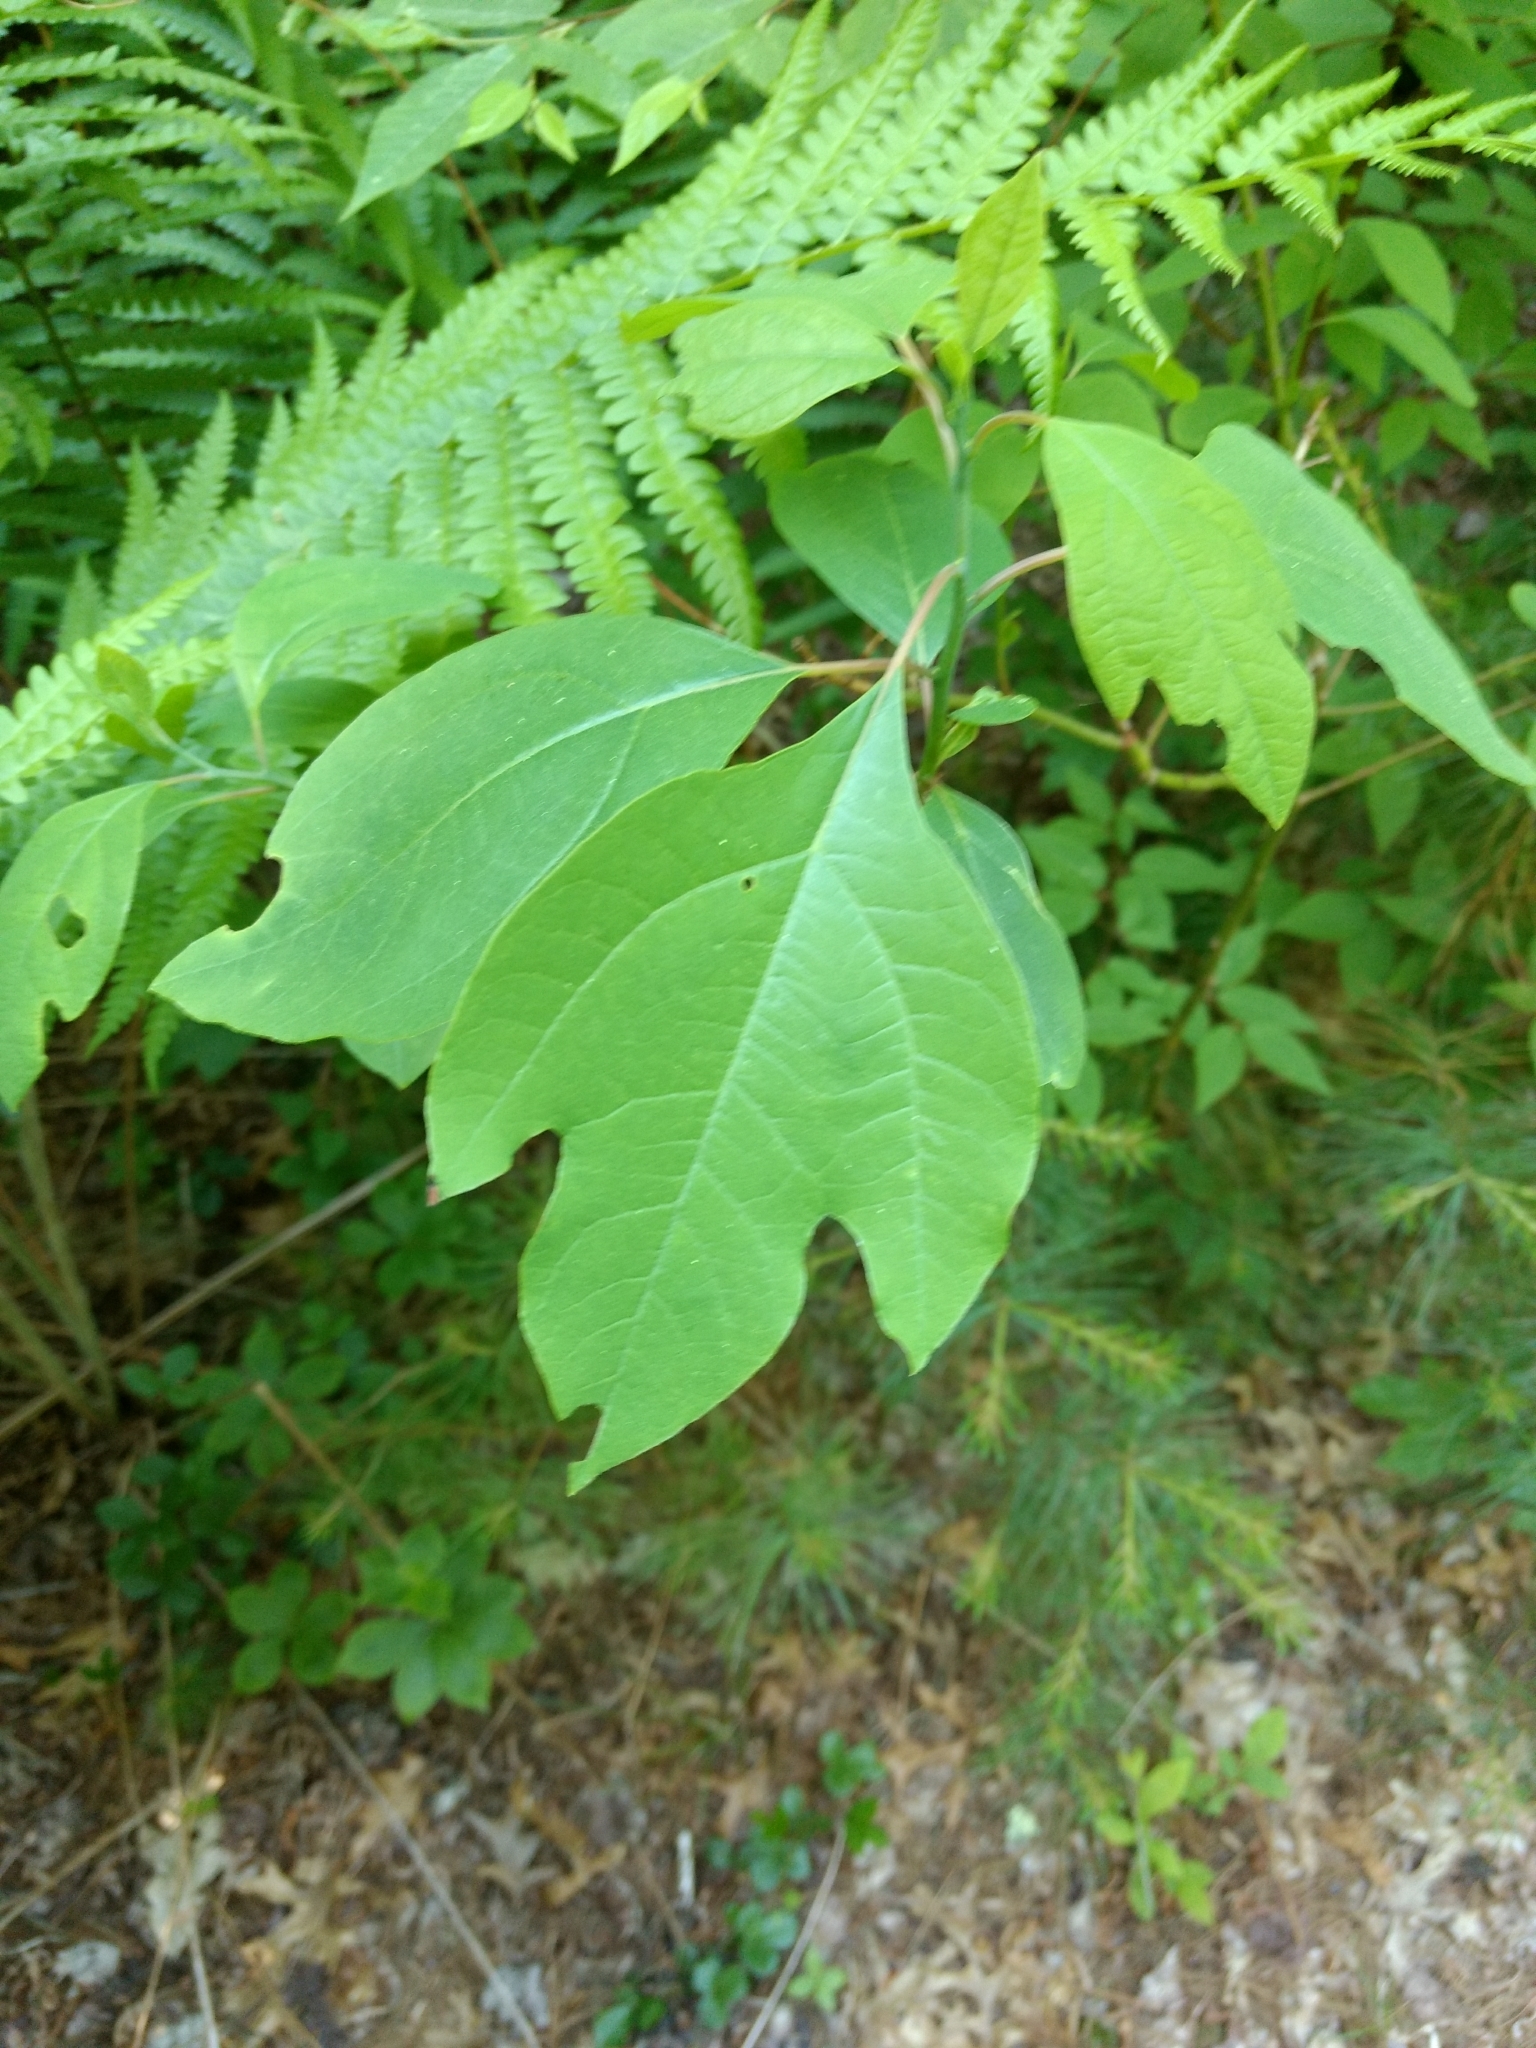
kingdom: Plantae
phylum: Tracheophyta
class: Magnoliopsida
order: Laurales
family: Lauraceae
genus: Sassafras
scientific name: Sassafras albidum
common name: Sassafras
